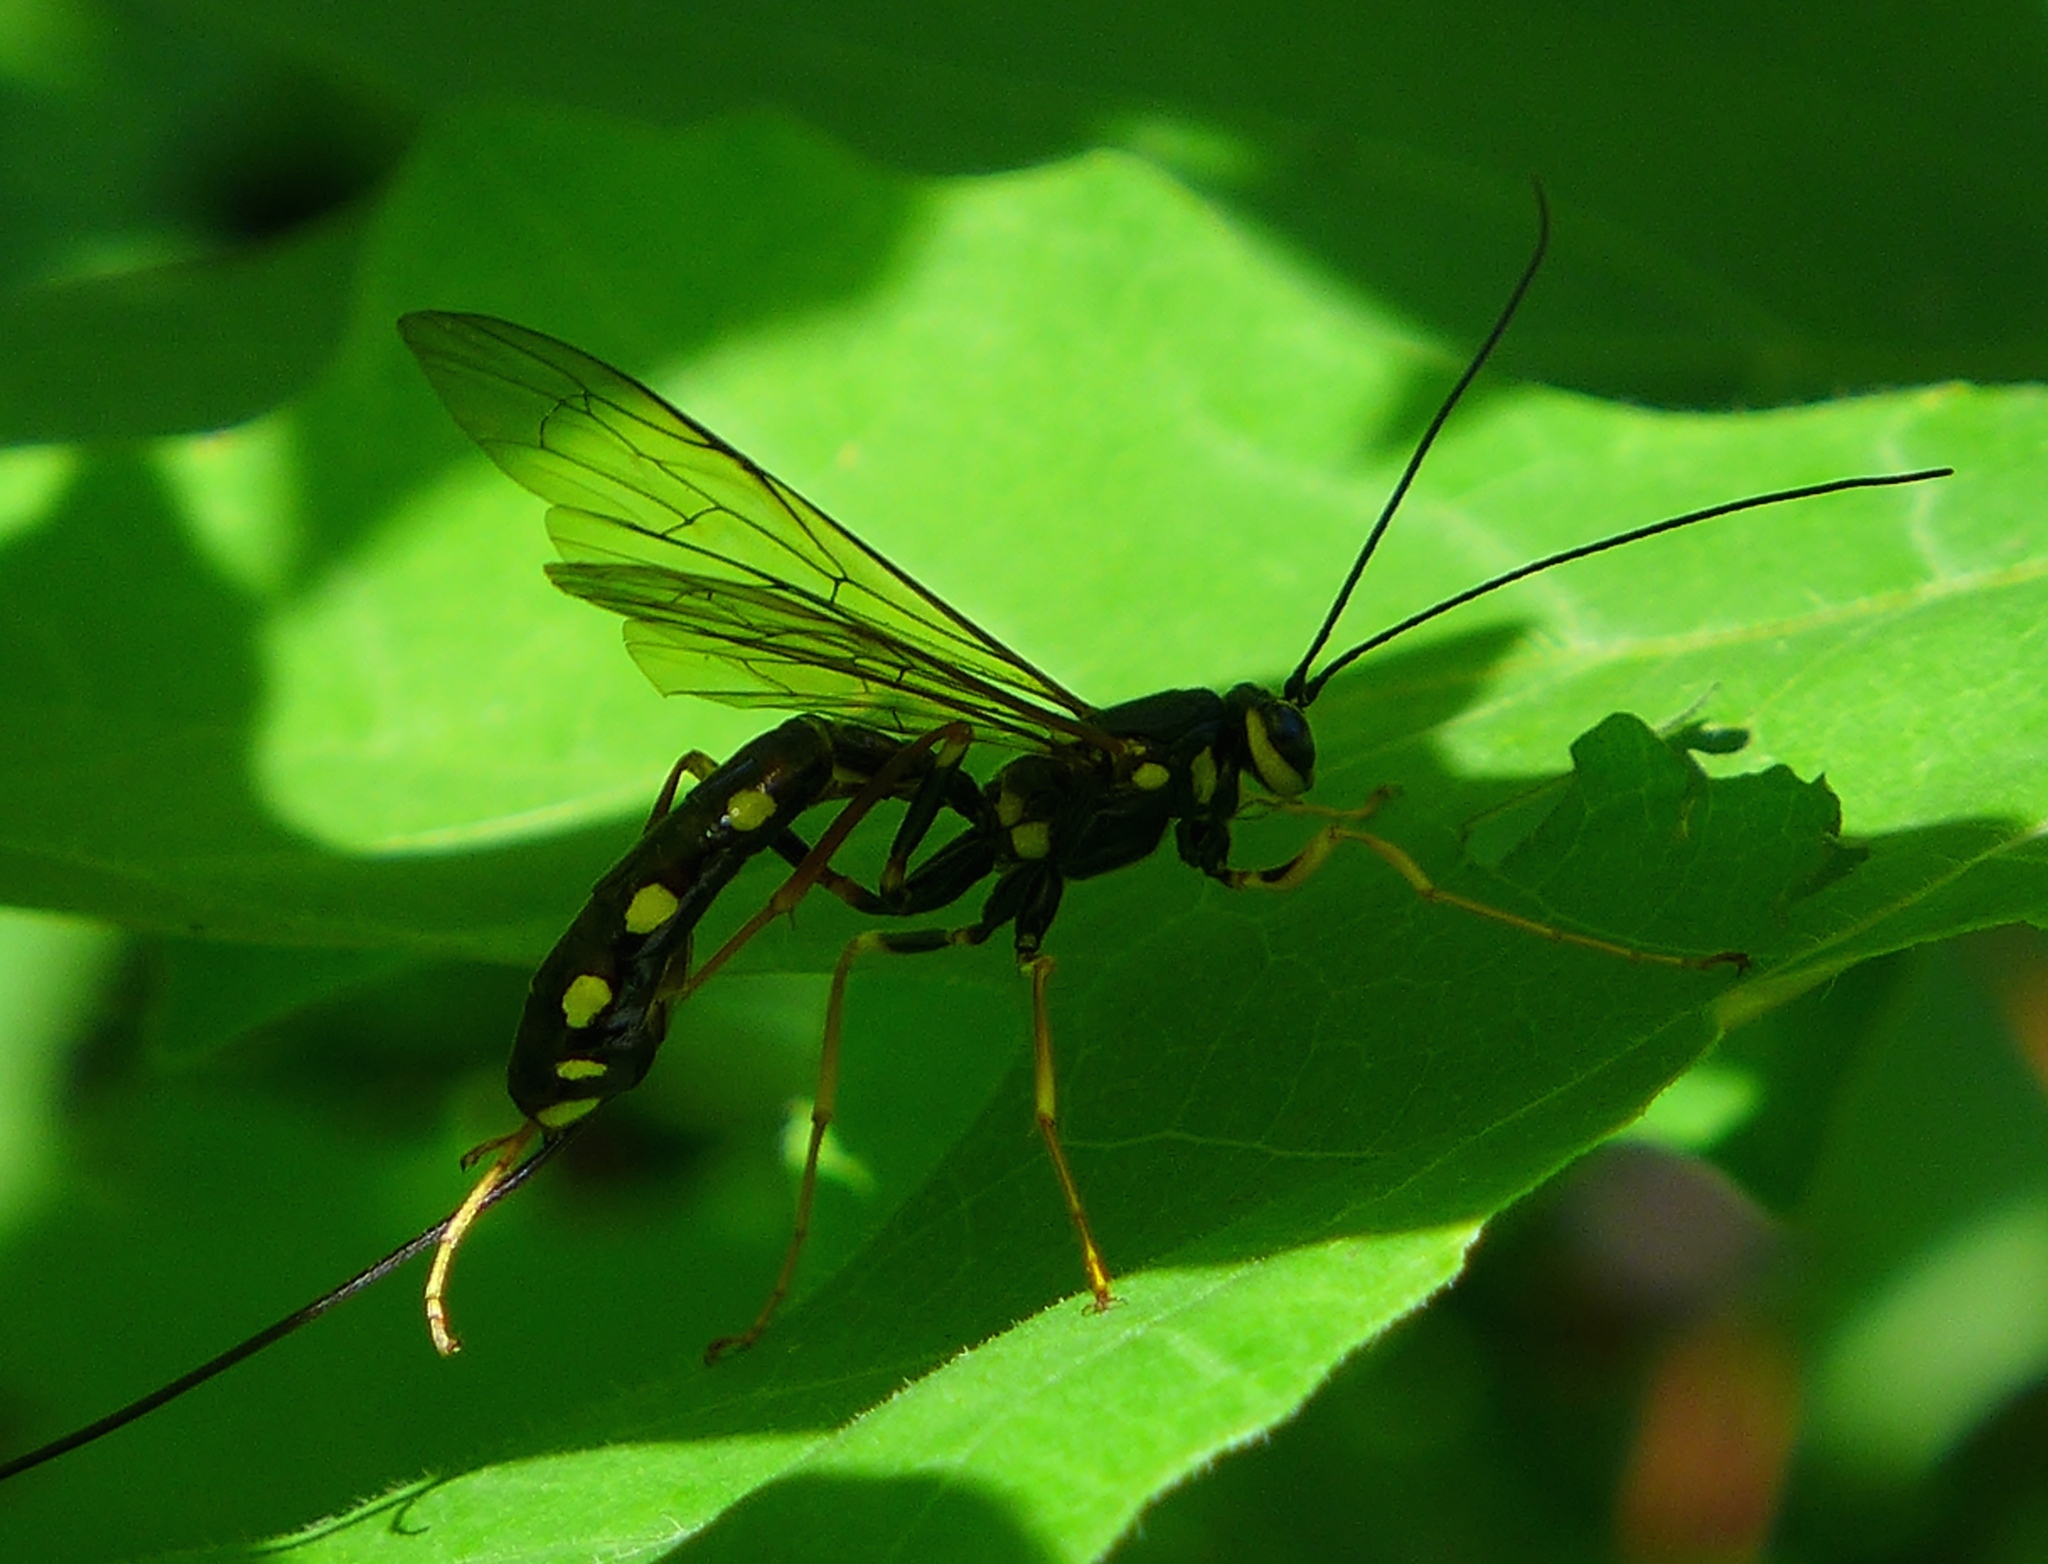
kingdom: Animalia
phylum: Arthropoda
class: Insecta
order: Hymenoptera
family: Ichneumonidae
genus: Megarhyssa
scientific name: Megarhyssa nortoni
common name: Norton's giant ichneumonid wasp
